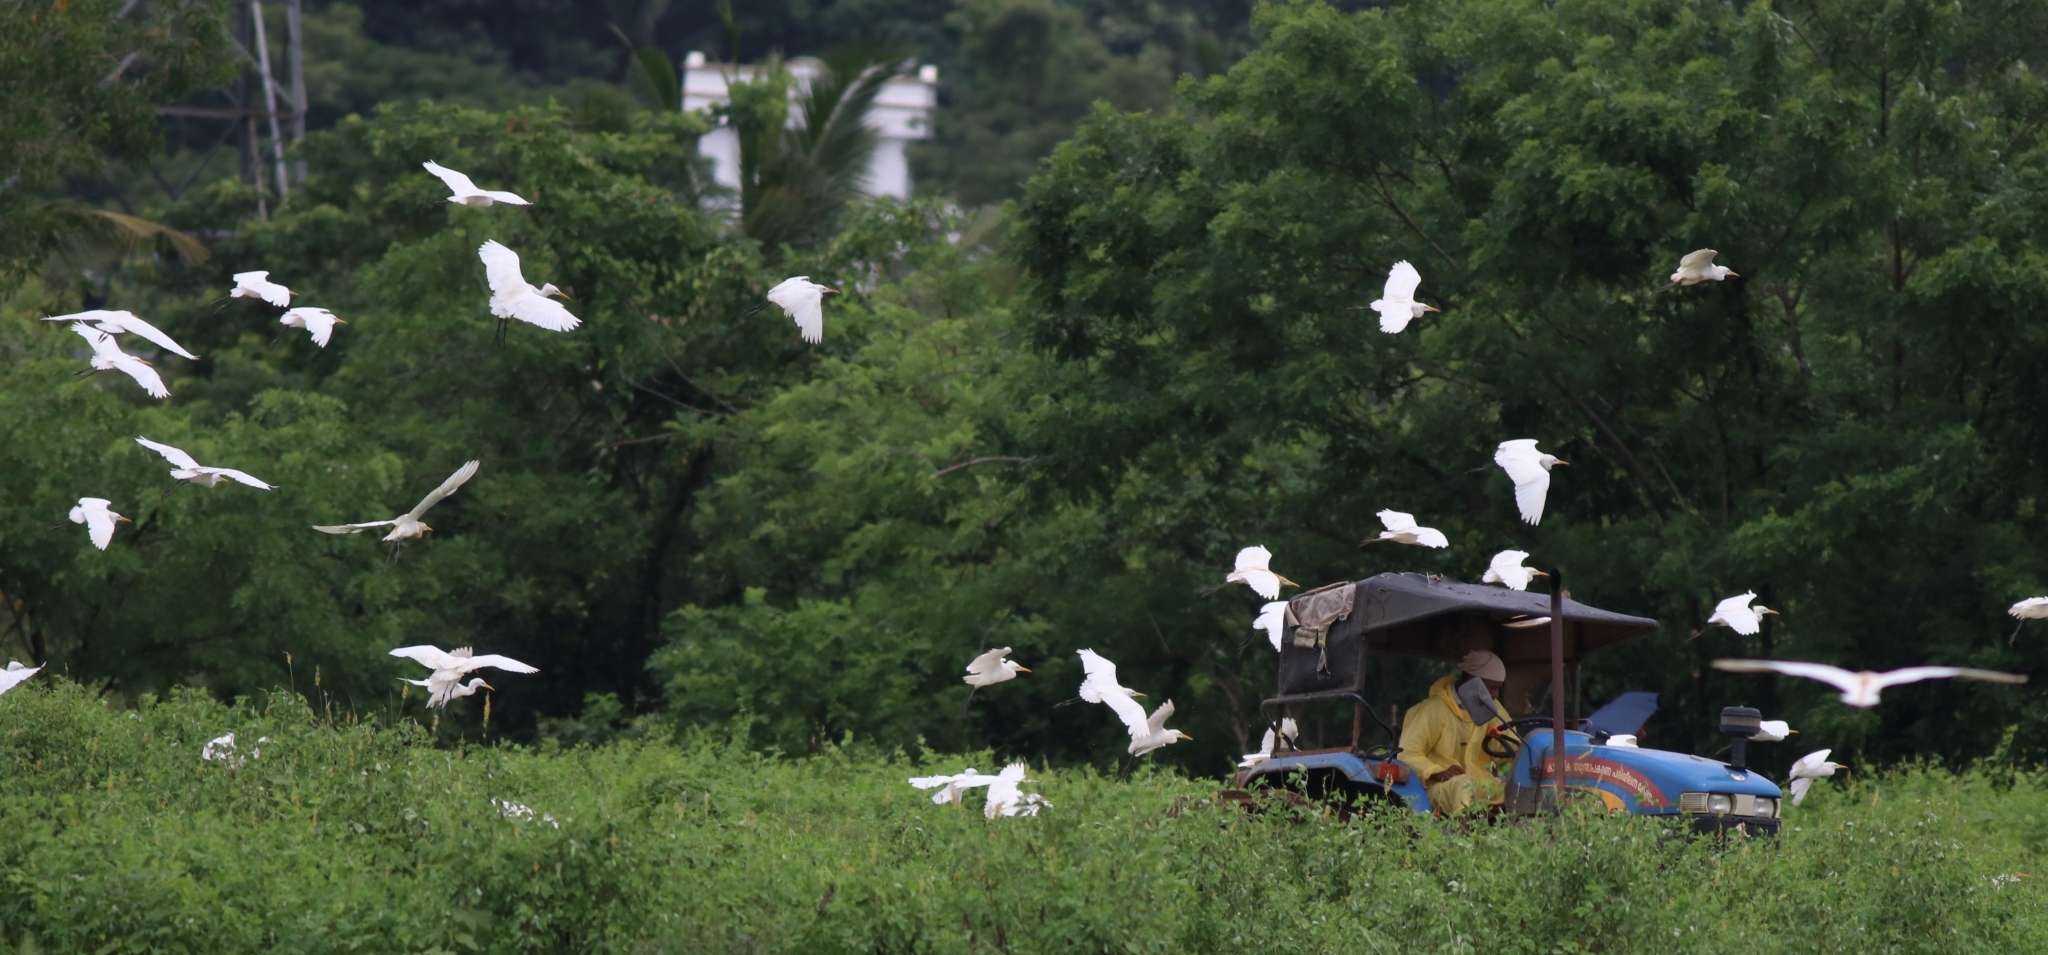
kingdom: Animalia
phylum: Chordata
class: Aves
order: Pelecaniformes
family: Ardeidae
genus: Bubulcus
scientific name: Bubulcus coromandus
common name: Eastern cattle egret
